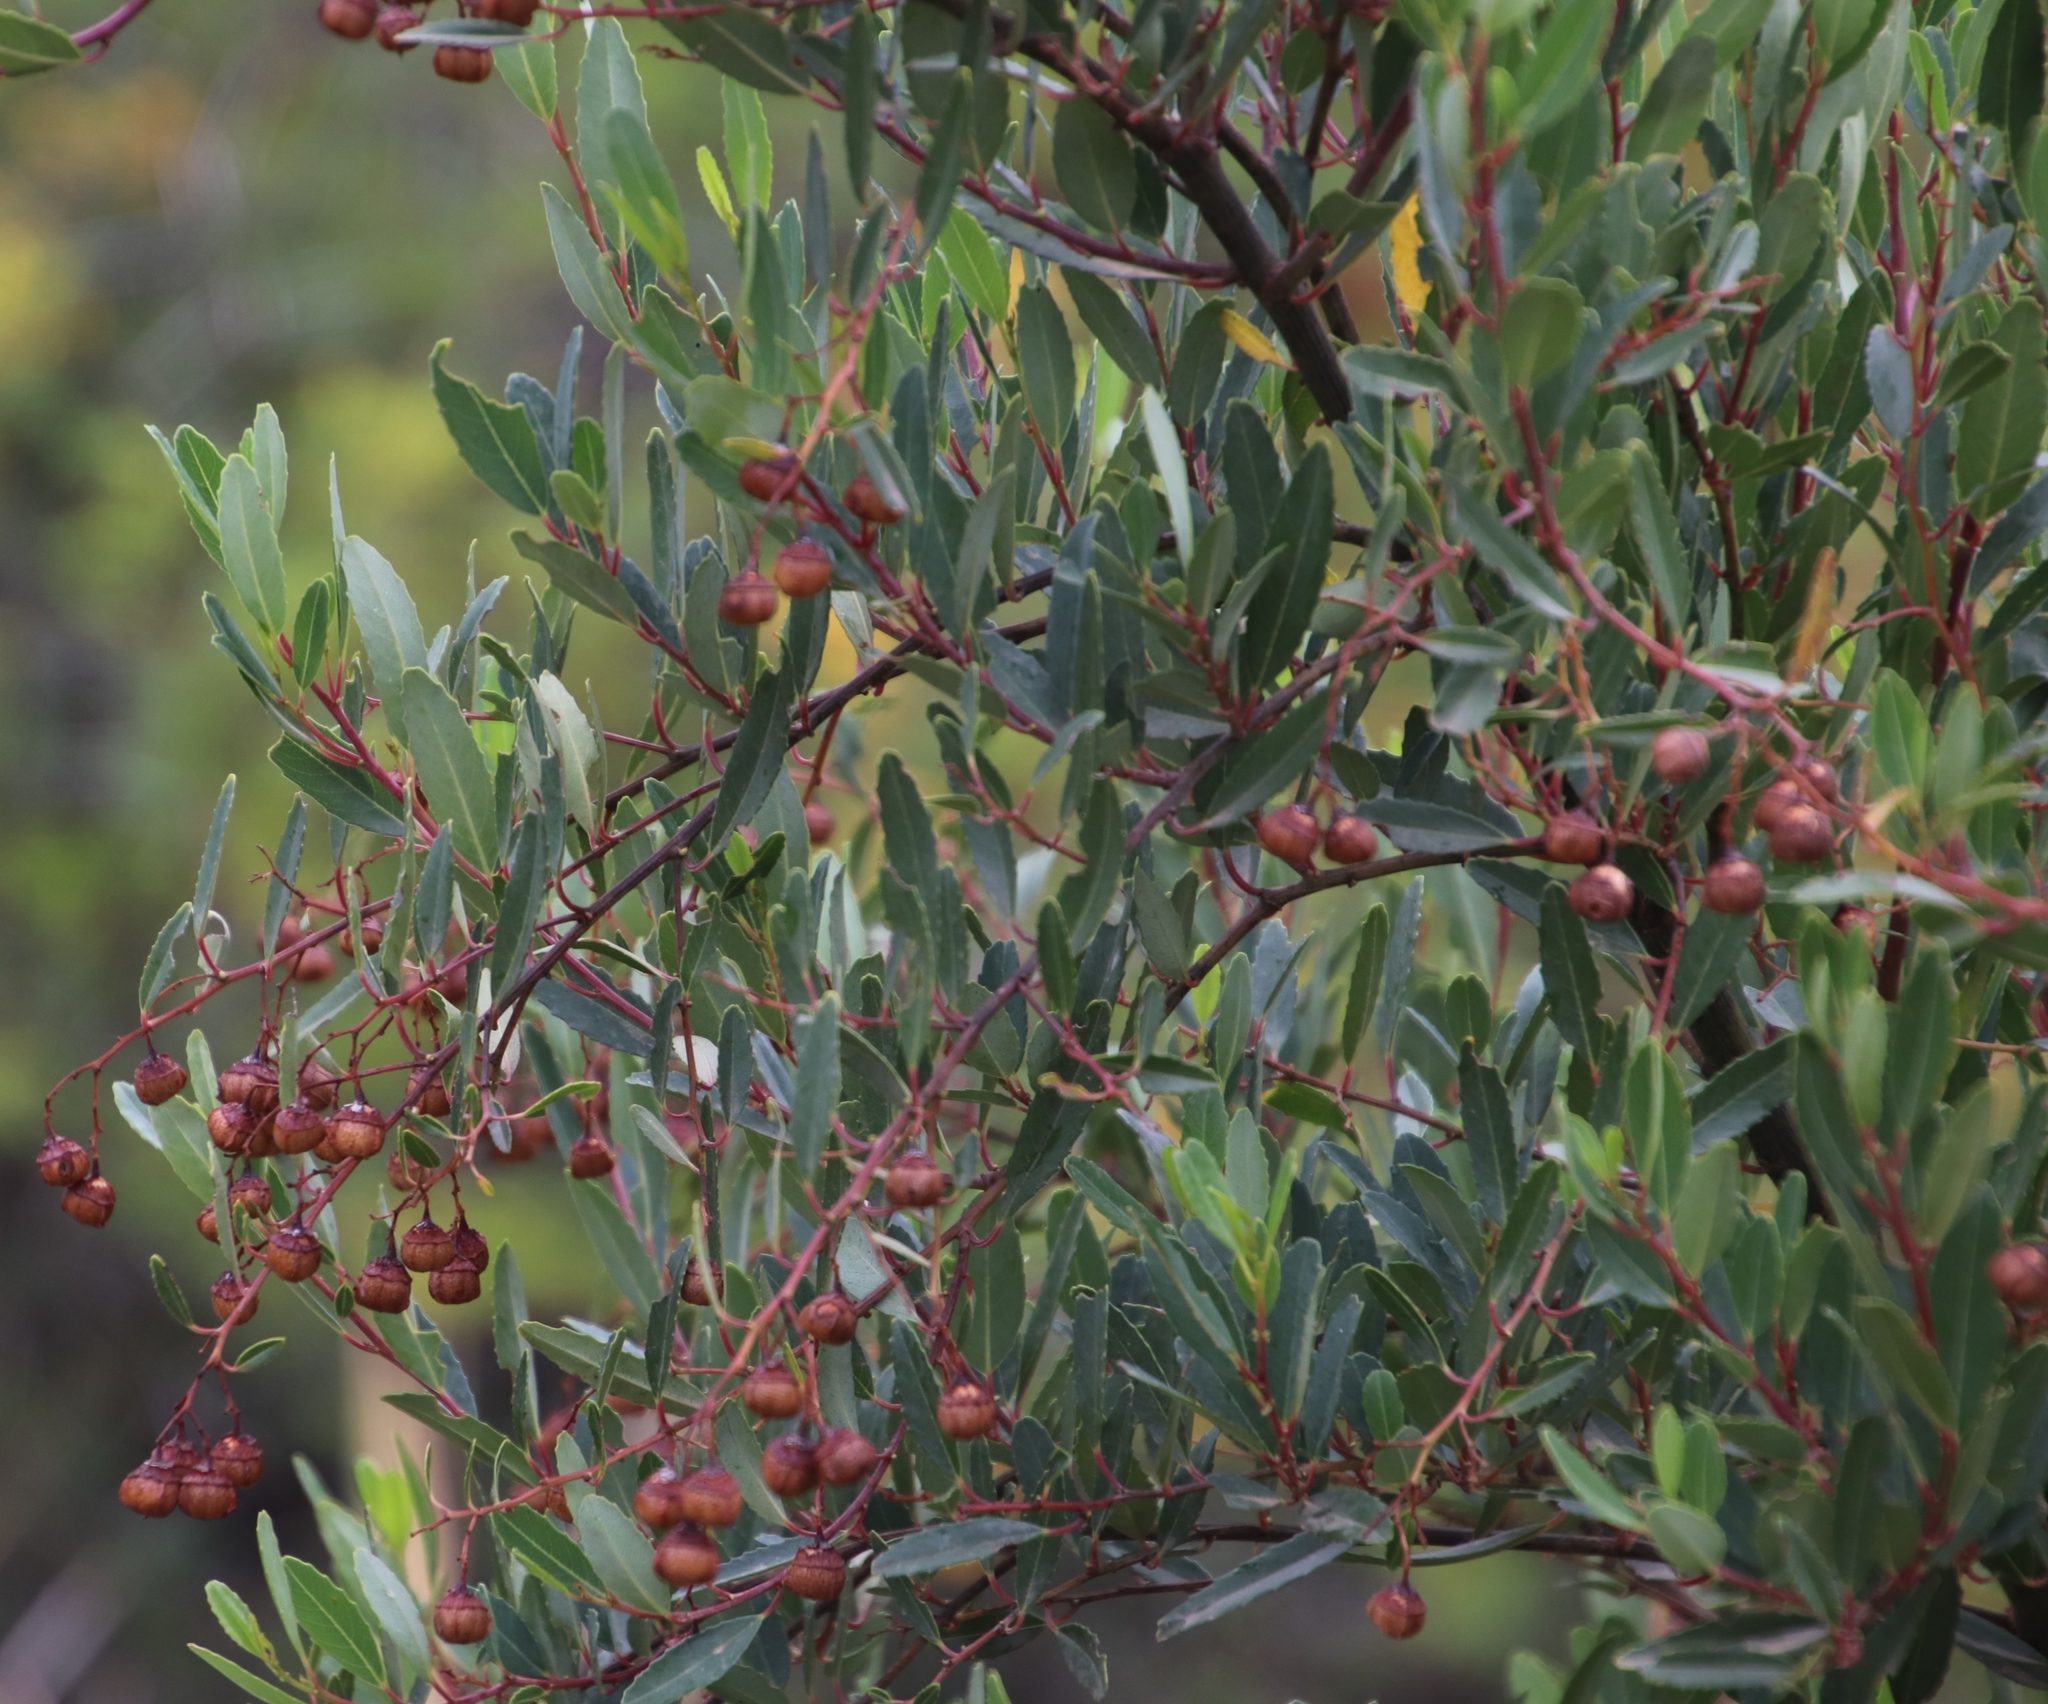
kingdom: Plantae
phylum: Tracheophyta
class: Magnoliopsida
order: Rosales
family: Rhamnaceae
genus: Noltea
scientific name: Noltea africana
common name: Soapbush
